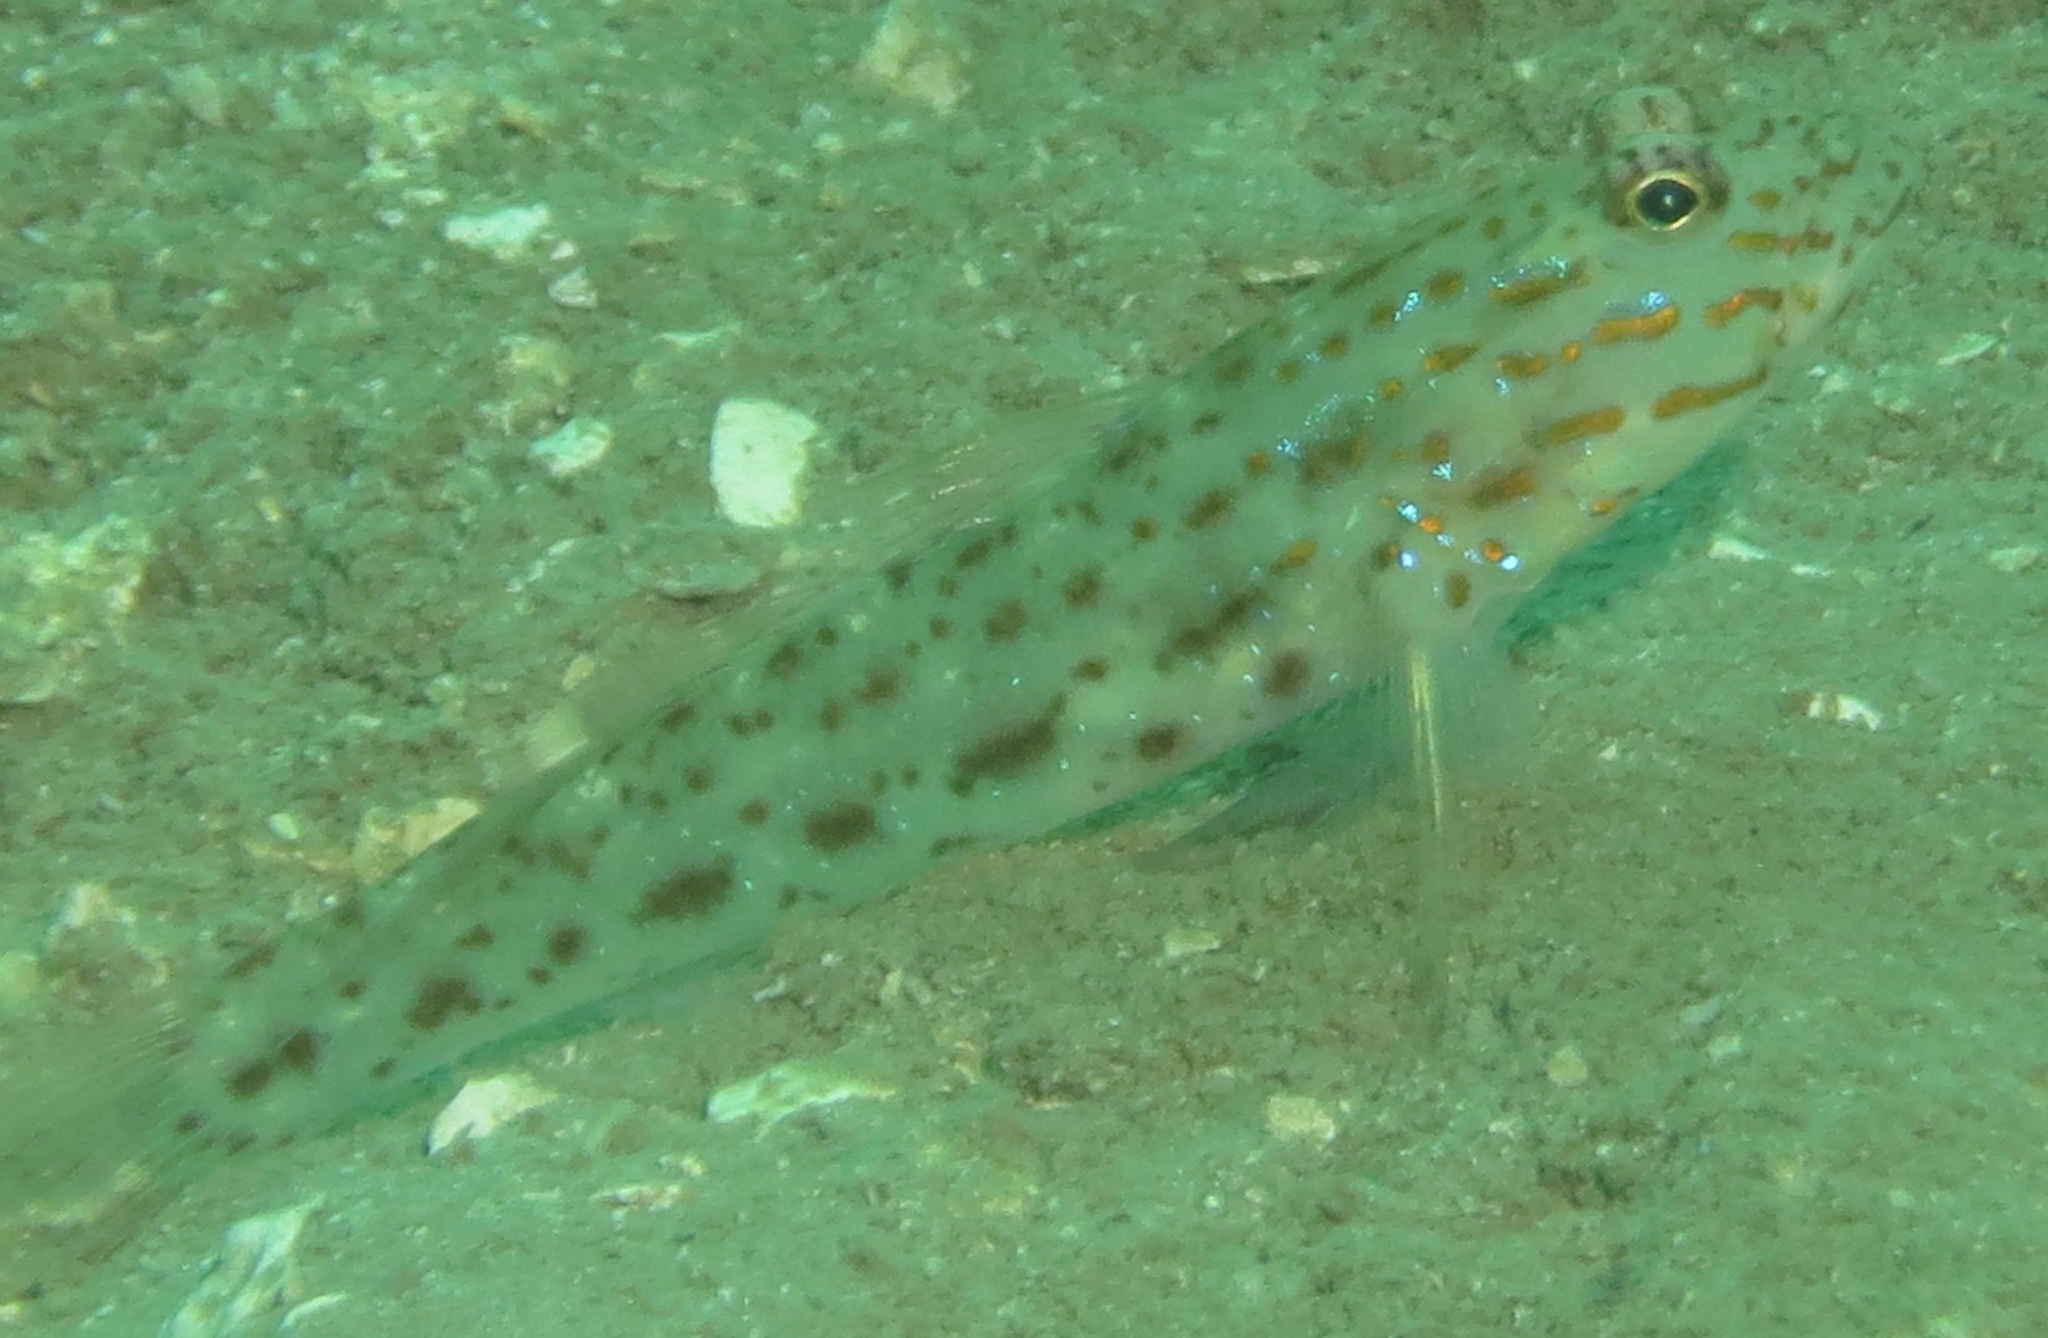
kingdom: Animalia
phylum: Chordata
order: Perciformes
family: Gobiidae
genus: Ctenogobiops
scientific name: Ctenogobiops crocineus
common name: Silverspot shrimpgoby
